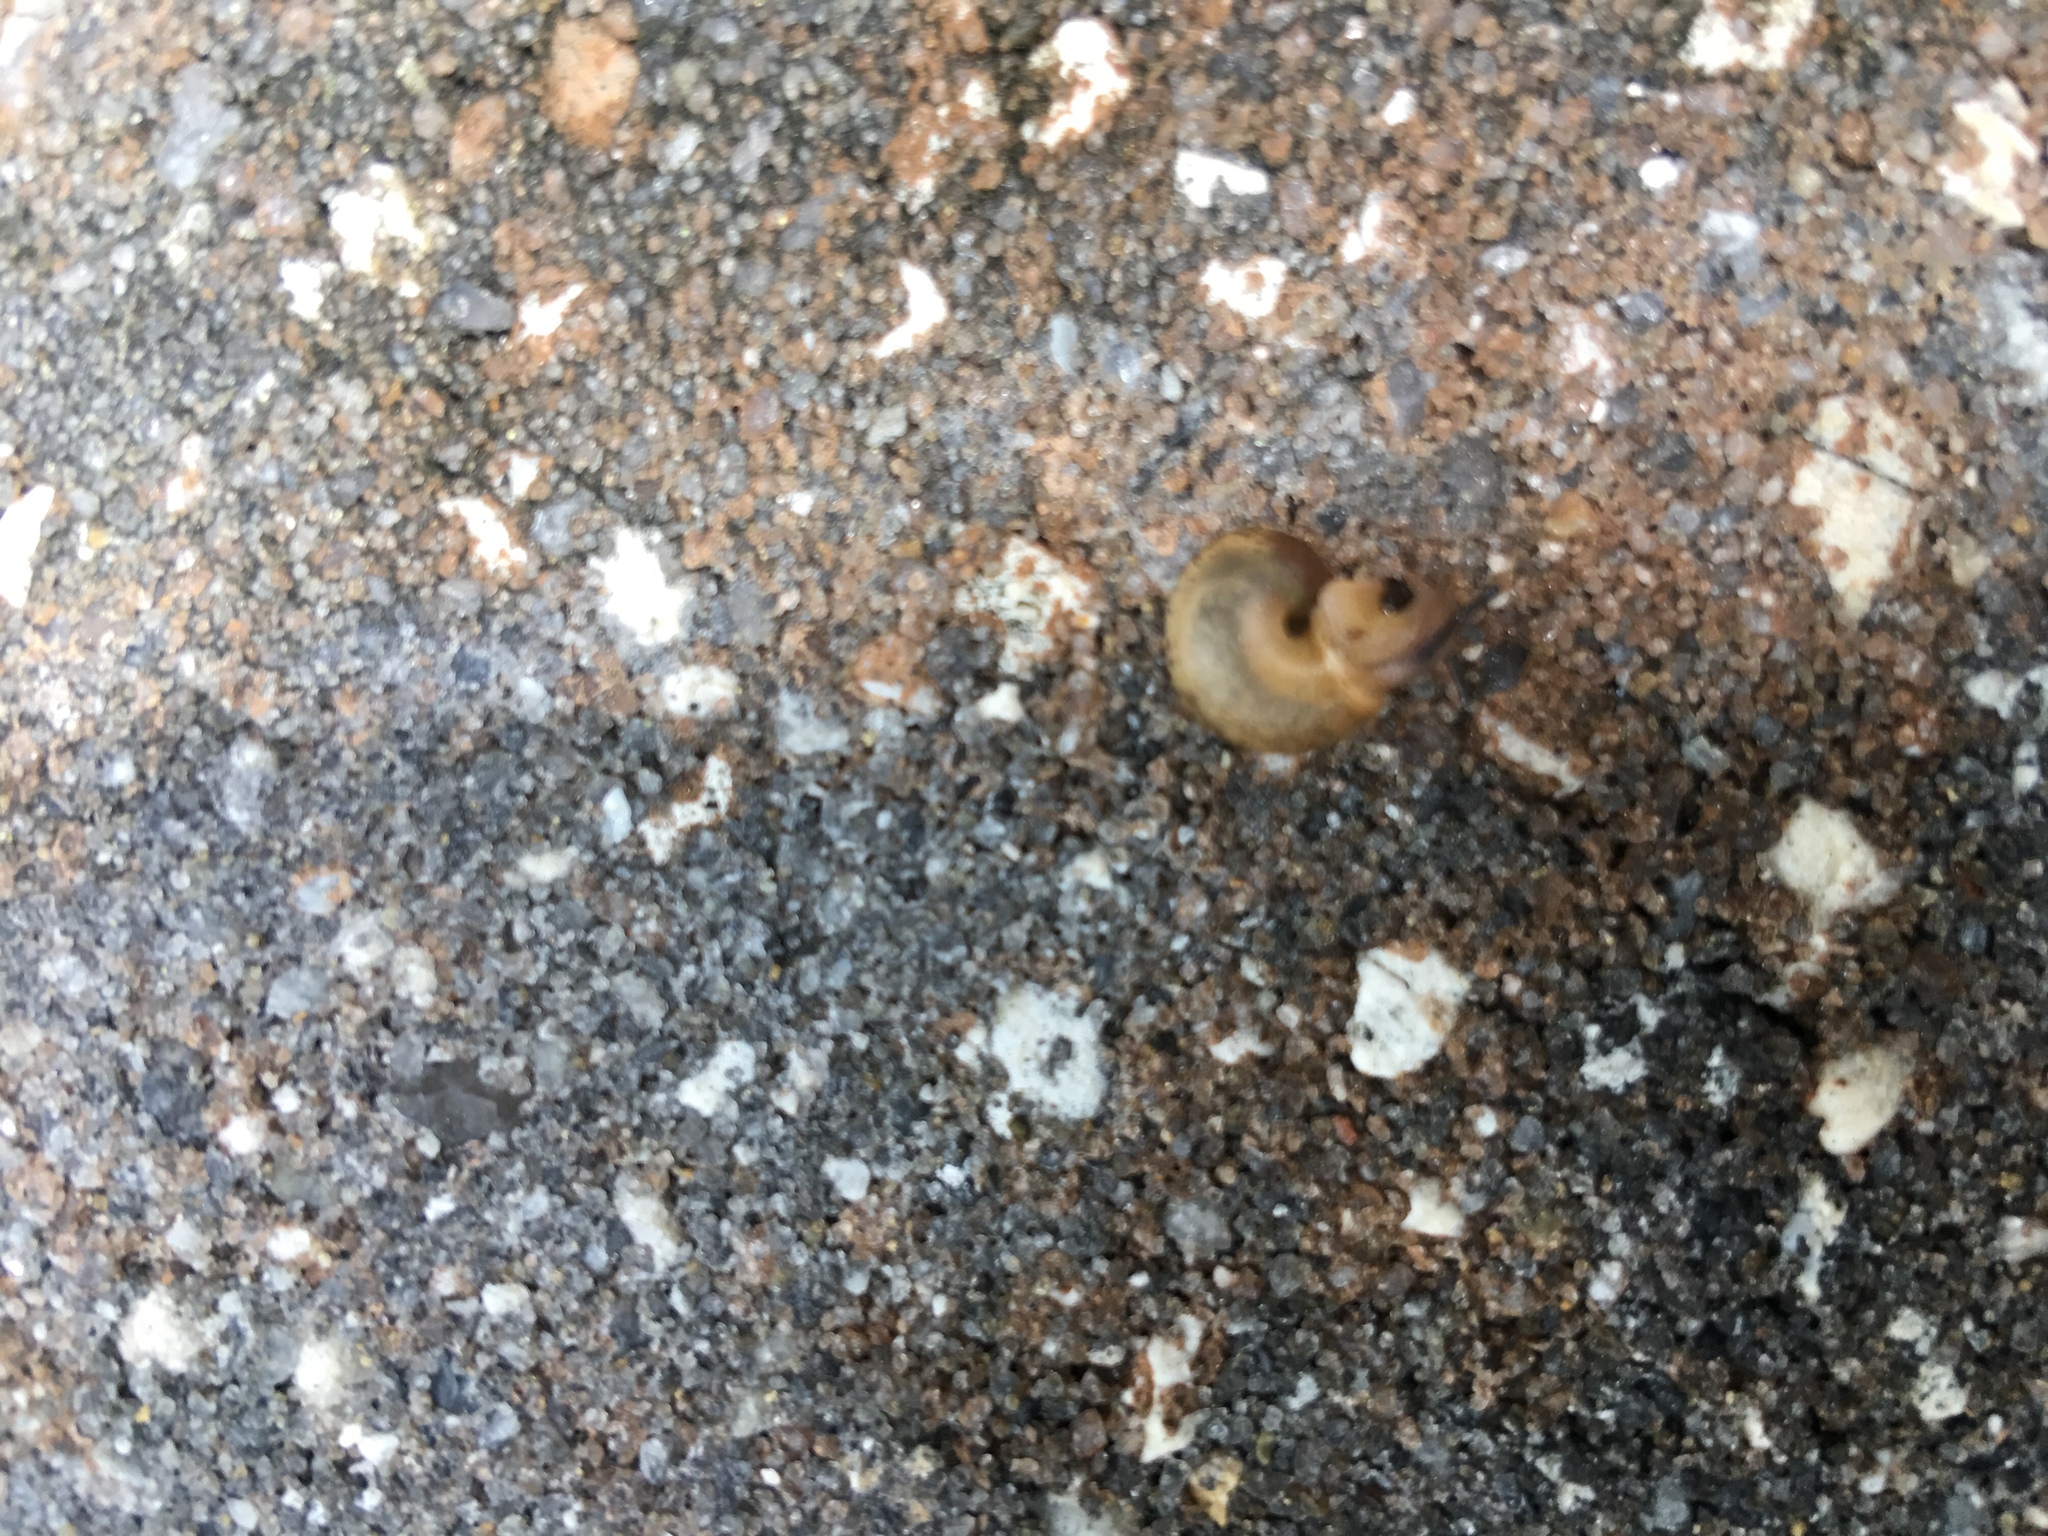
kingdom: Animalia
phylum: Mollusca
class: Gastropoda
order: Stylommatophora
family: Camaenidae
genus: Bradybaena
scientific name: Bradybaena similaris
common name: Asian trampsnail
